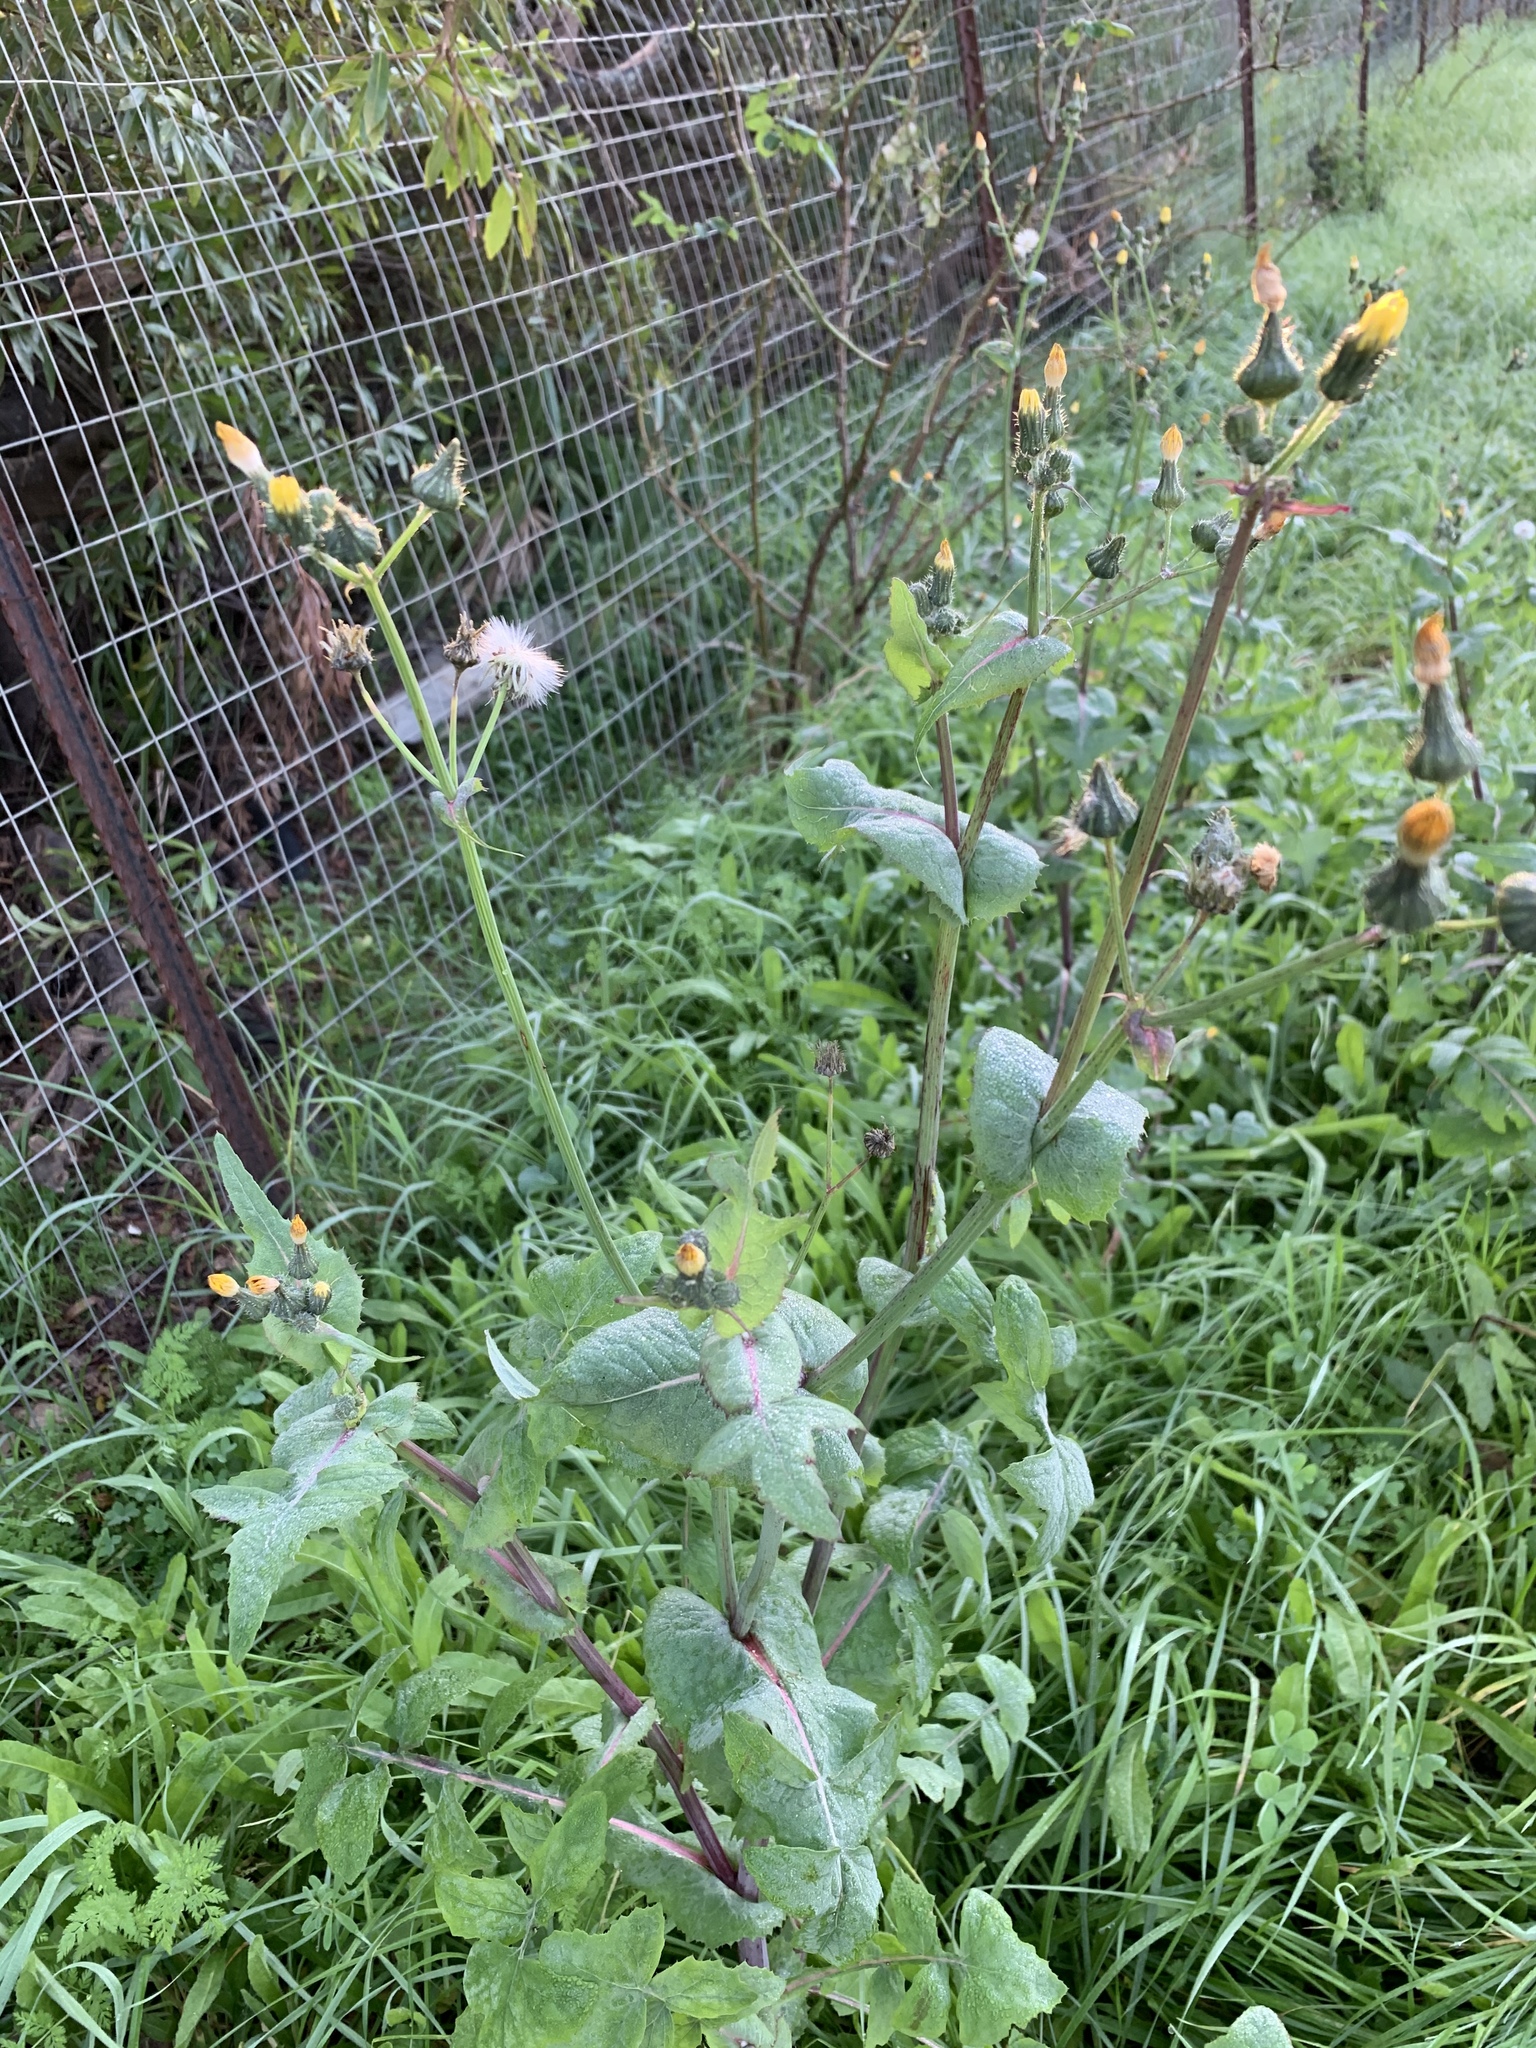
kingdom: Plantae
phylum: Tracheophyta
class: Magnoliopsida
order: Asterales
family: Asteraceae
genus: Sonchus
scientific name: Sonchus oleraceus
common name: Common sowthistle
